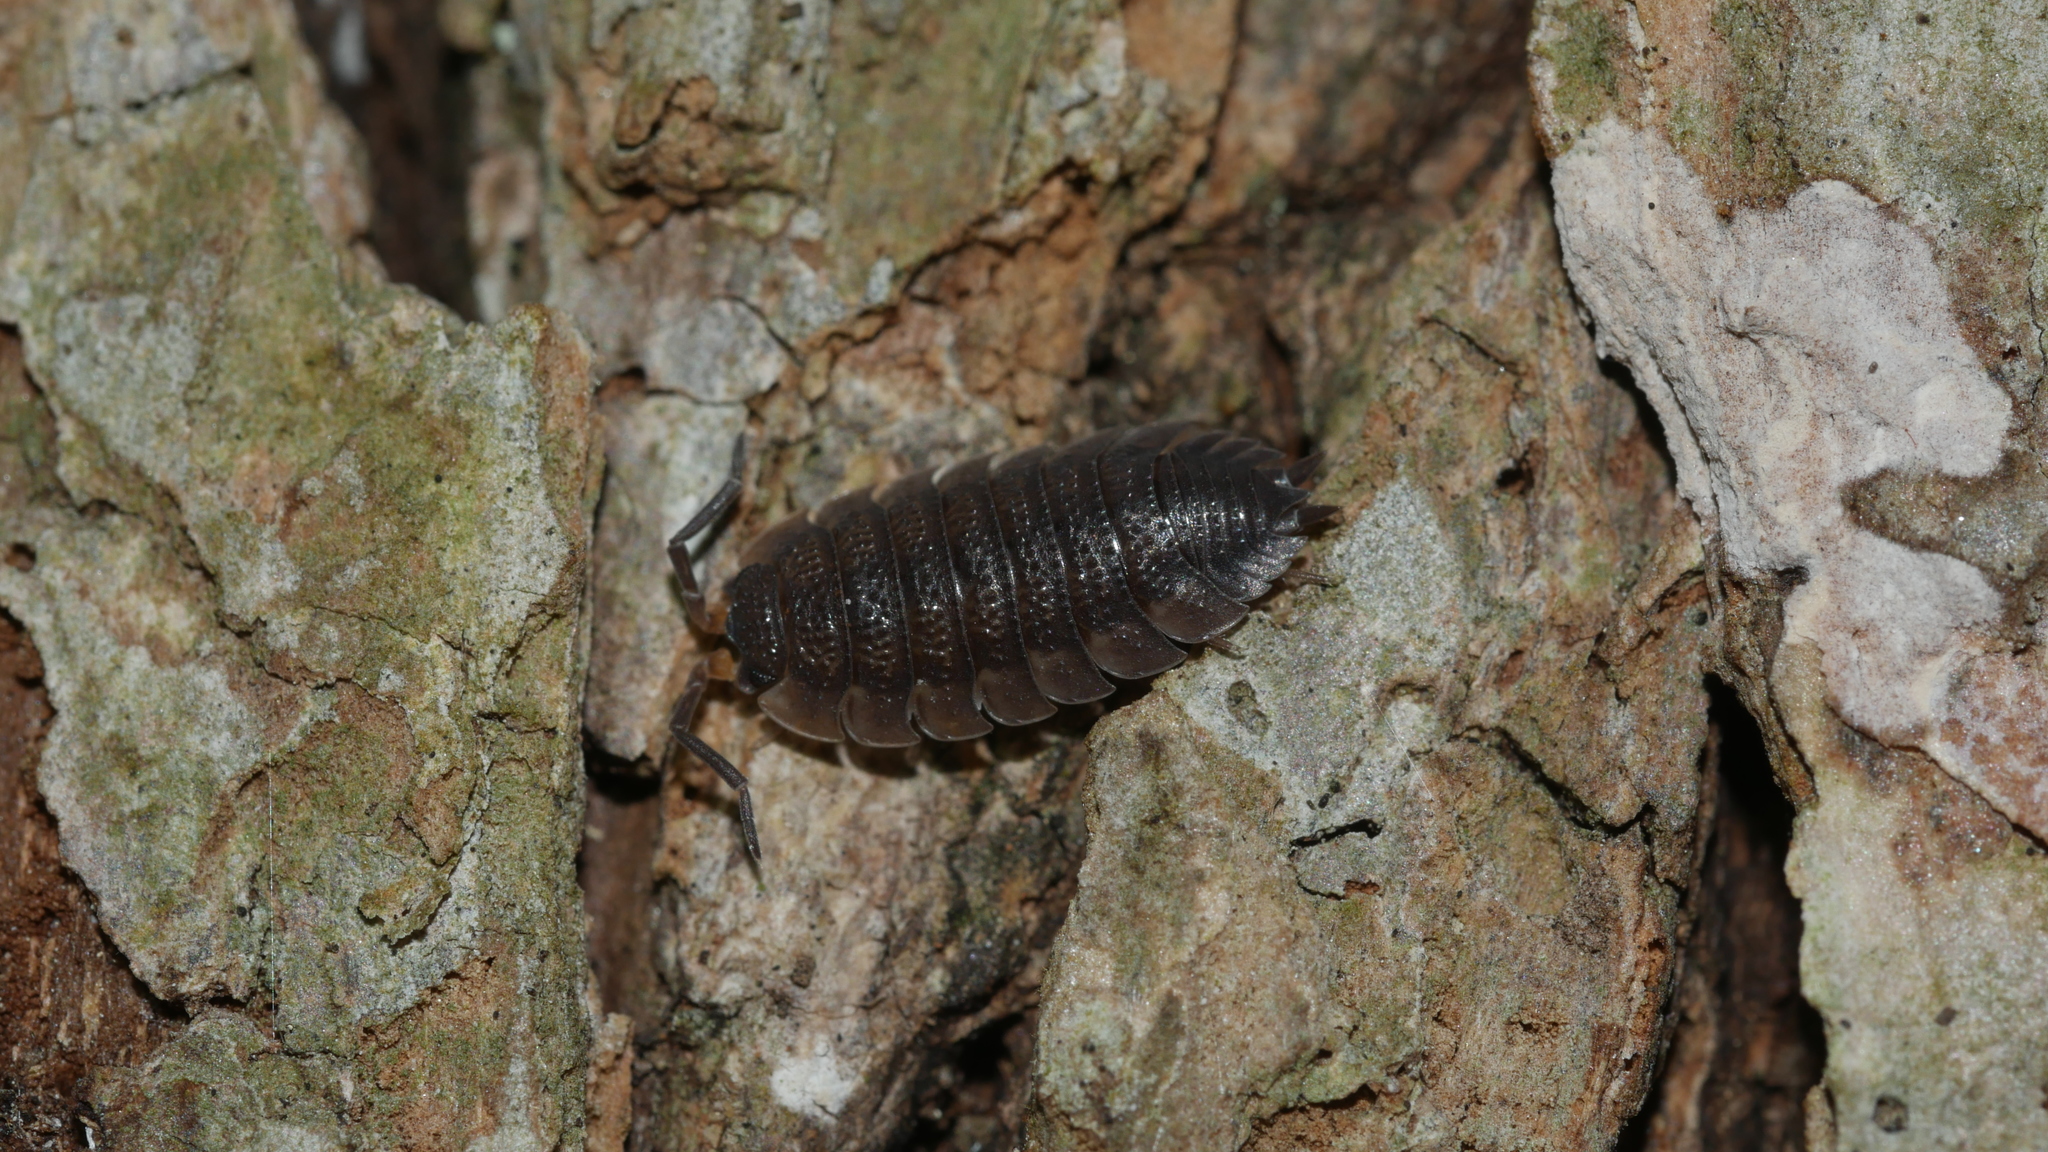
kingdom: Animalia
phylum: Arthropoda
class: Malacostraca
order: Isopoda
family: Porcellionidae
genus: Porcellio
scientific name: Porcellio scaber
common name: Common rough woodlouse
